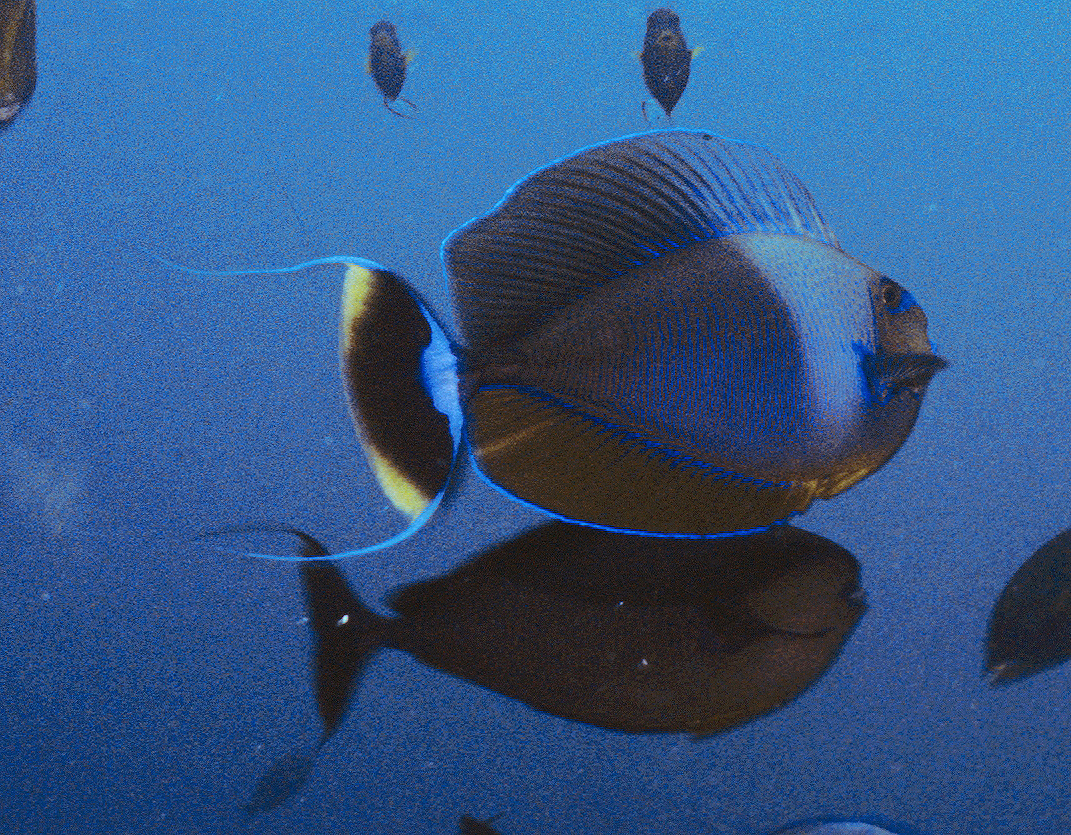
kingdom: Animalia
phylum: Chordata
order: Perciformes
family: Acanthuridae
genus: Naso
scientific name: Naso vlamingii
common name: Big-nose unicorn
